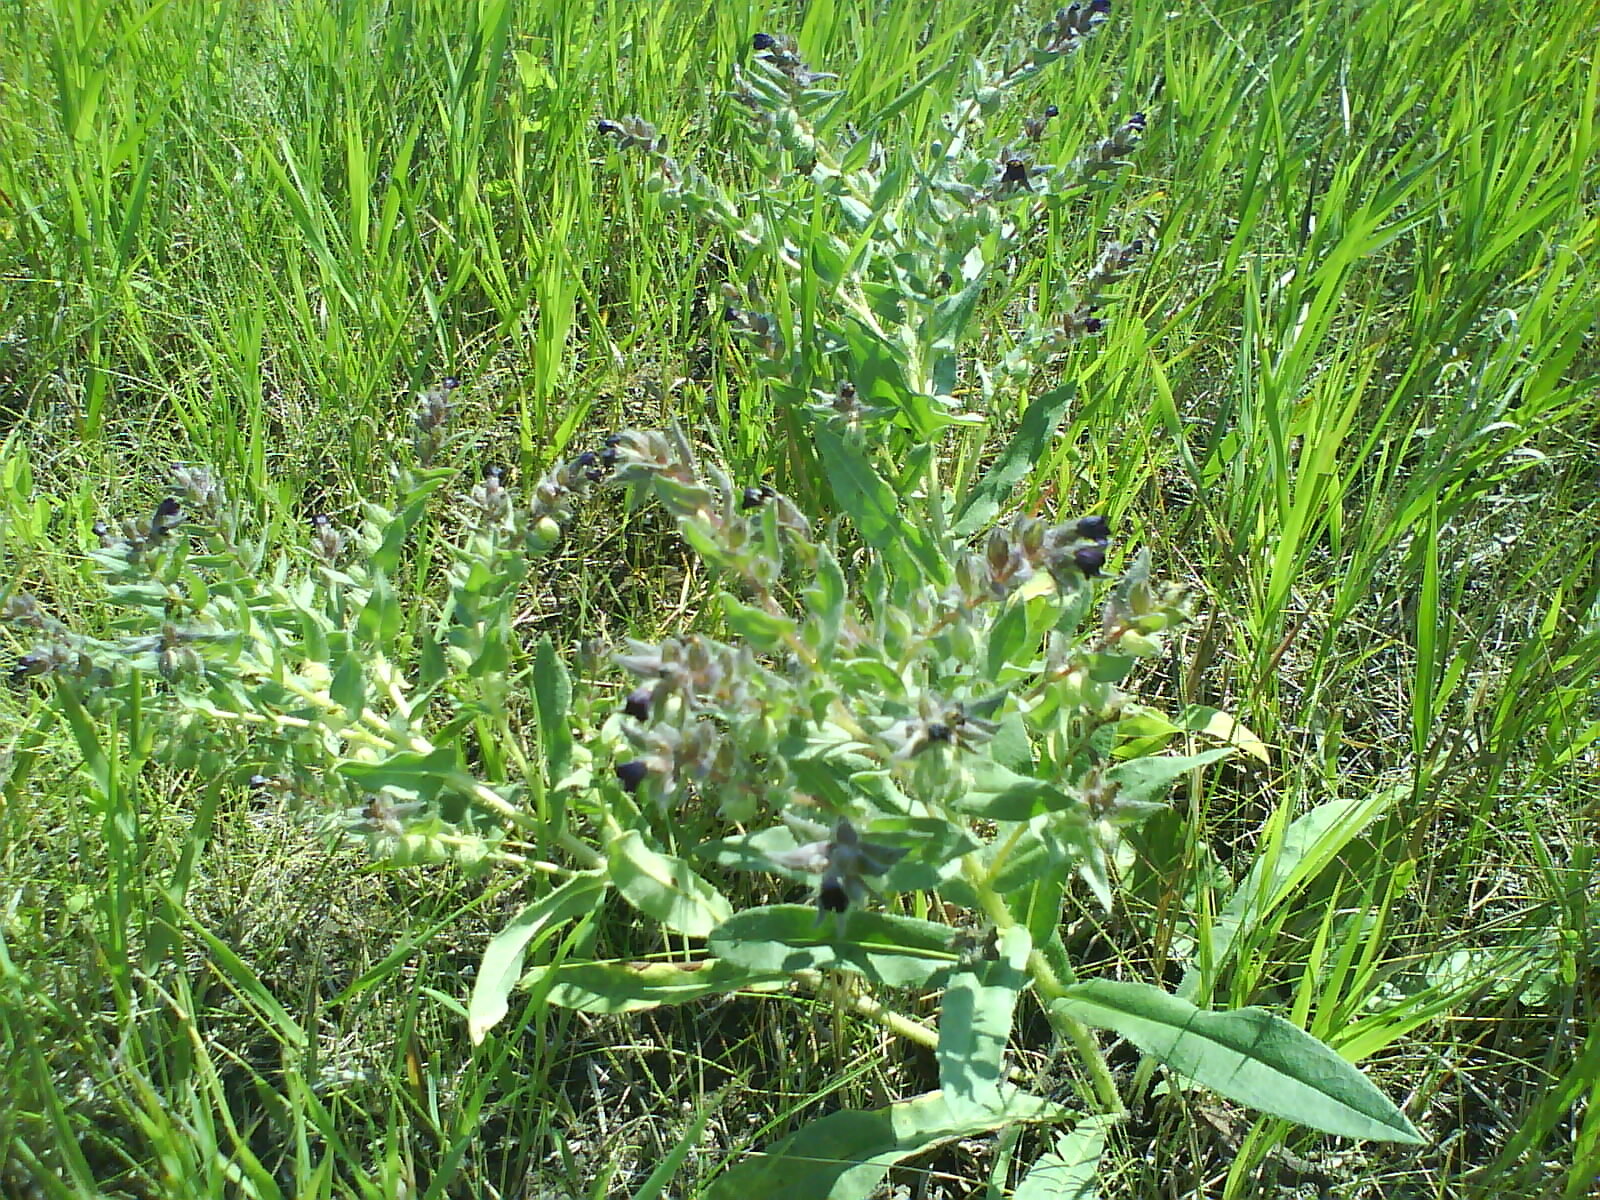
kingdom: Plantae
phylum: Tracheophyta
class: Magnoliopsida
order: Boraginales
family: Boraginaceae
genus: Nonea
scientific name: Nonea pulla
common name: Brown nonea
